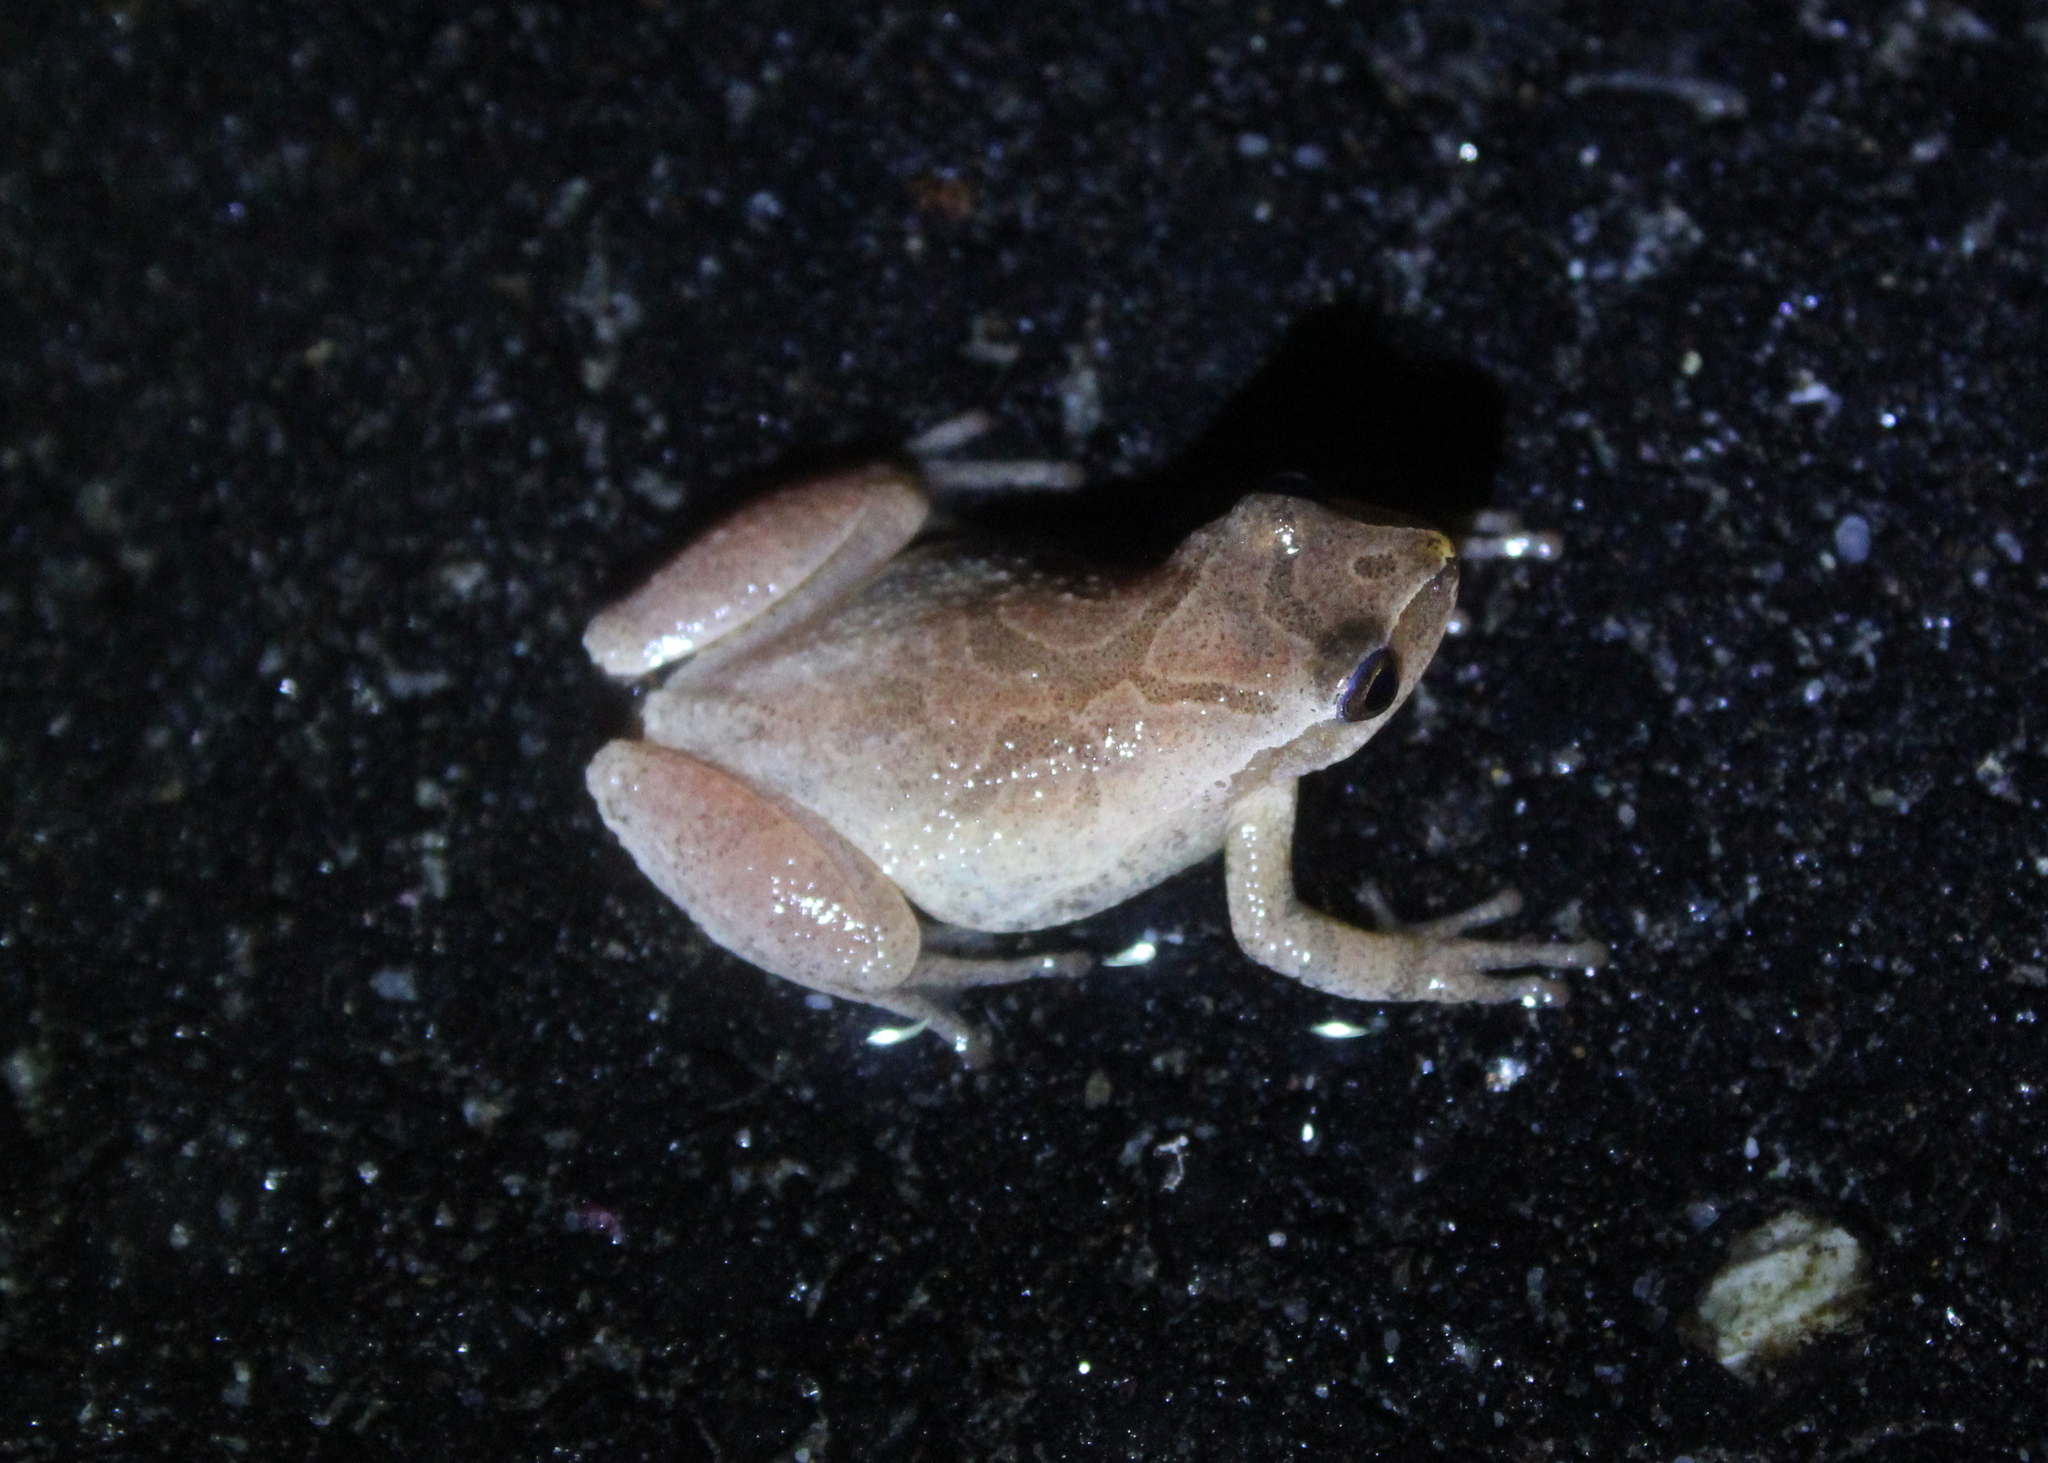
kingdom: Animalia
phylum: Chordata
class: Amphibia
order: Anura
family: Hylidae
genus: Pseudacris
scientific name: Pseudacris crucifer
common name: Spring peeper
